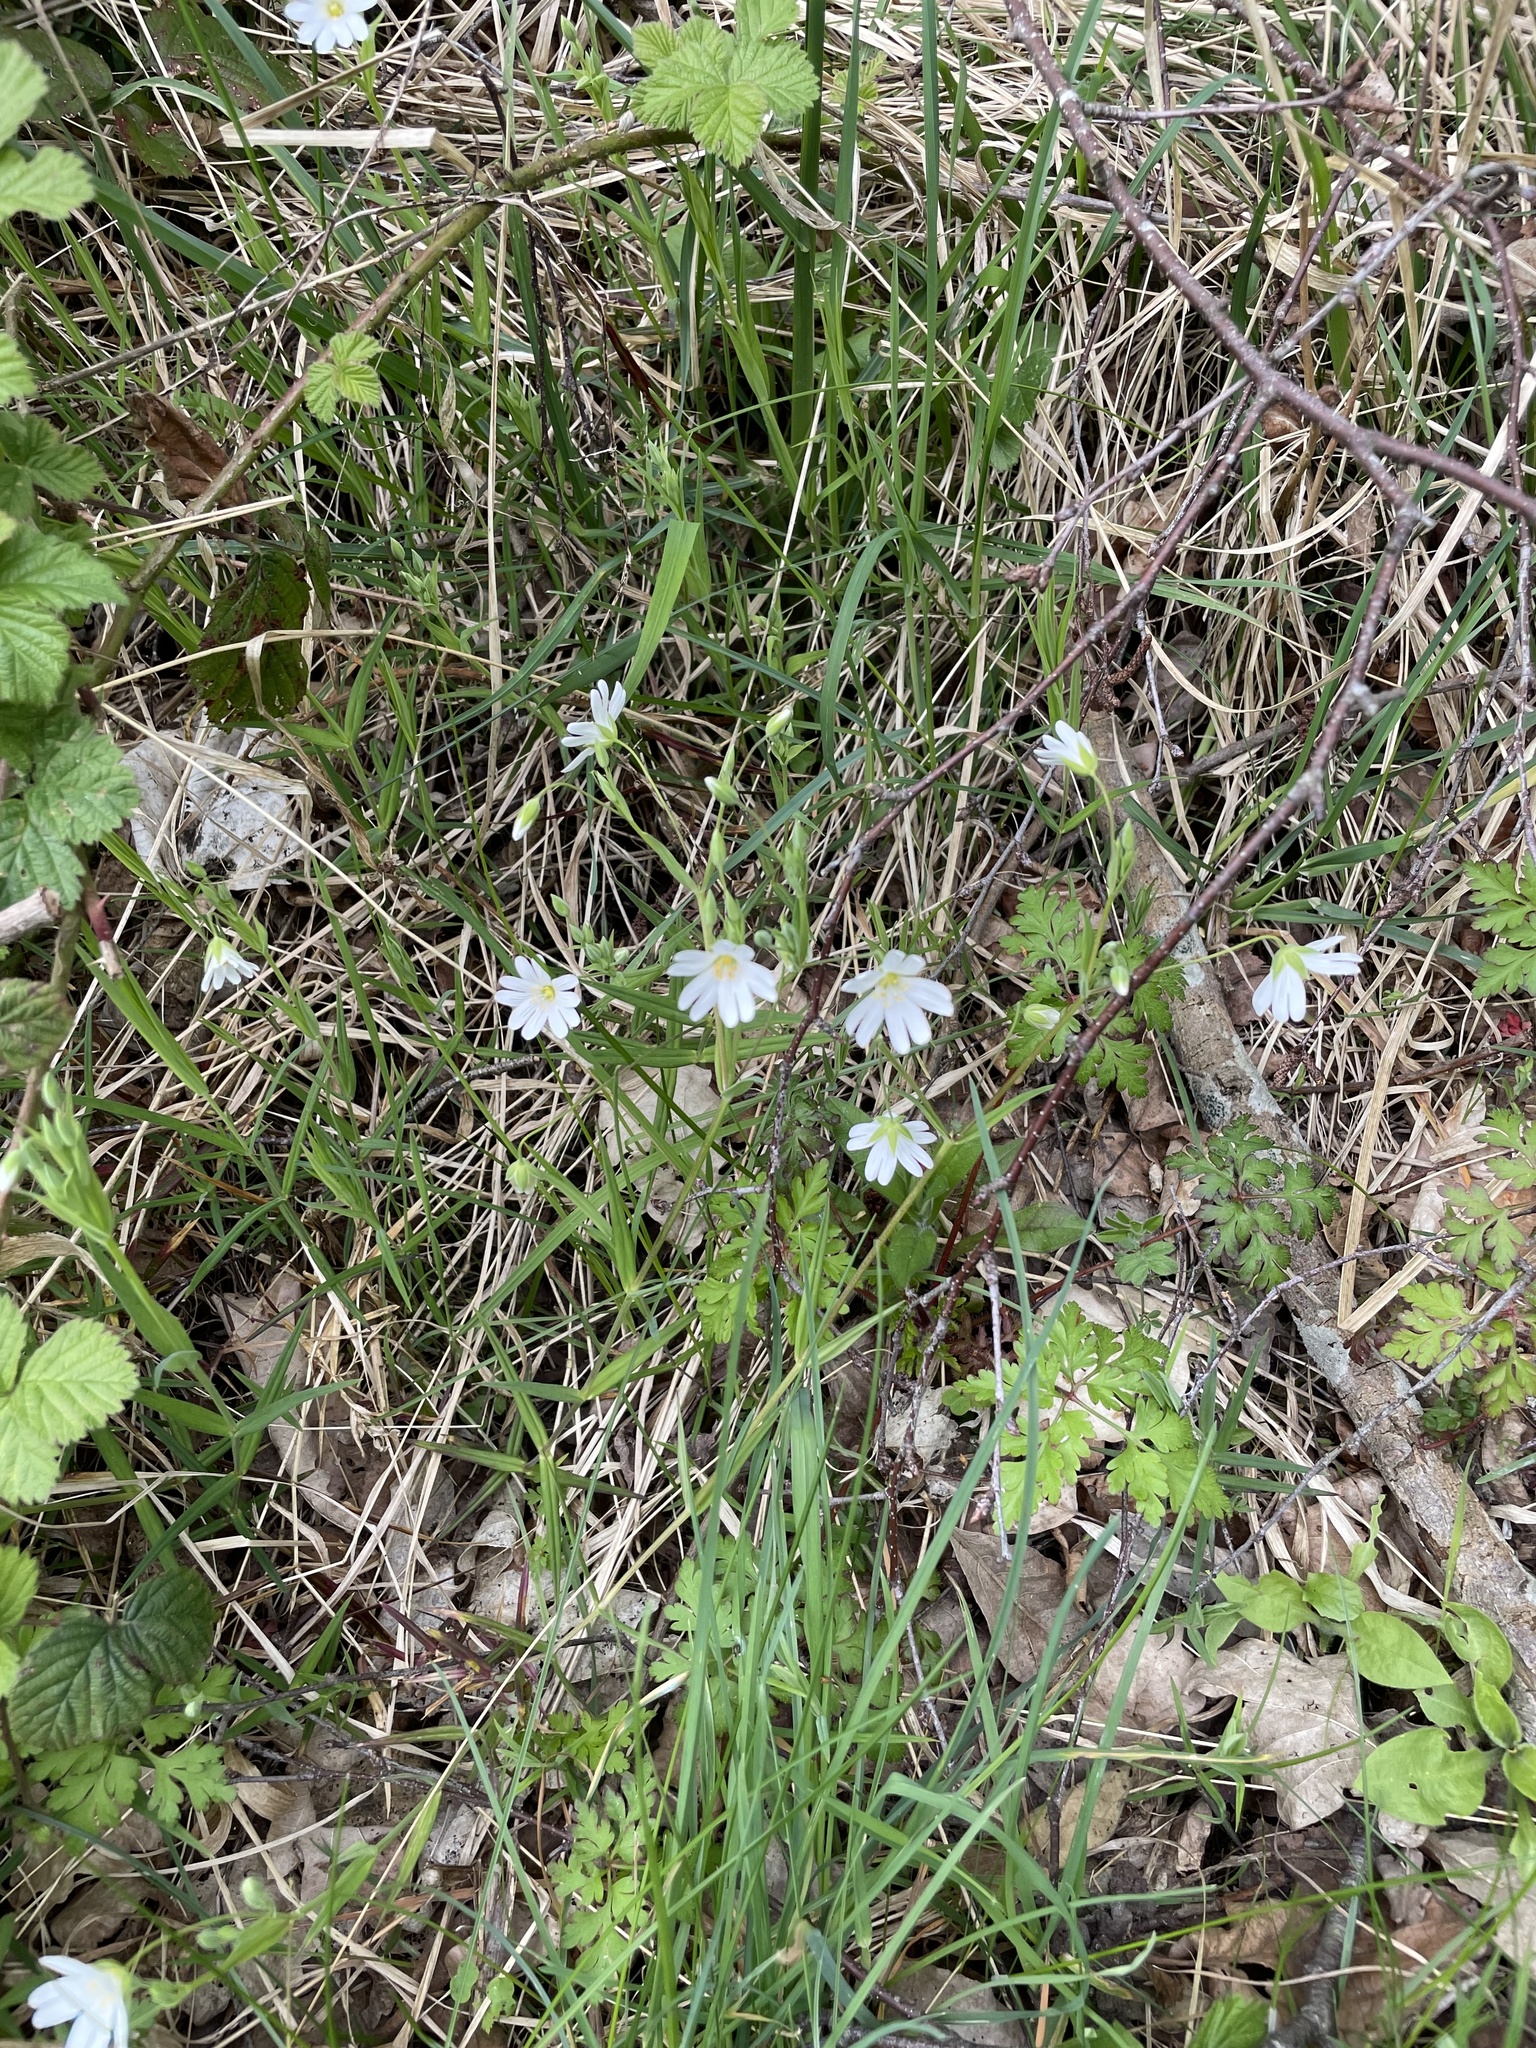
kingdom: Plantae
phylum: Tracheophyta
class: Magnoliopsida
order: Caryophyllales
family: Caryophyllaceae
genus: Rabelera
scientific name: Rabelera holostea
